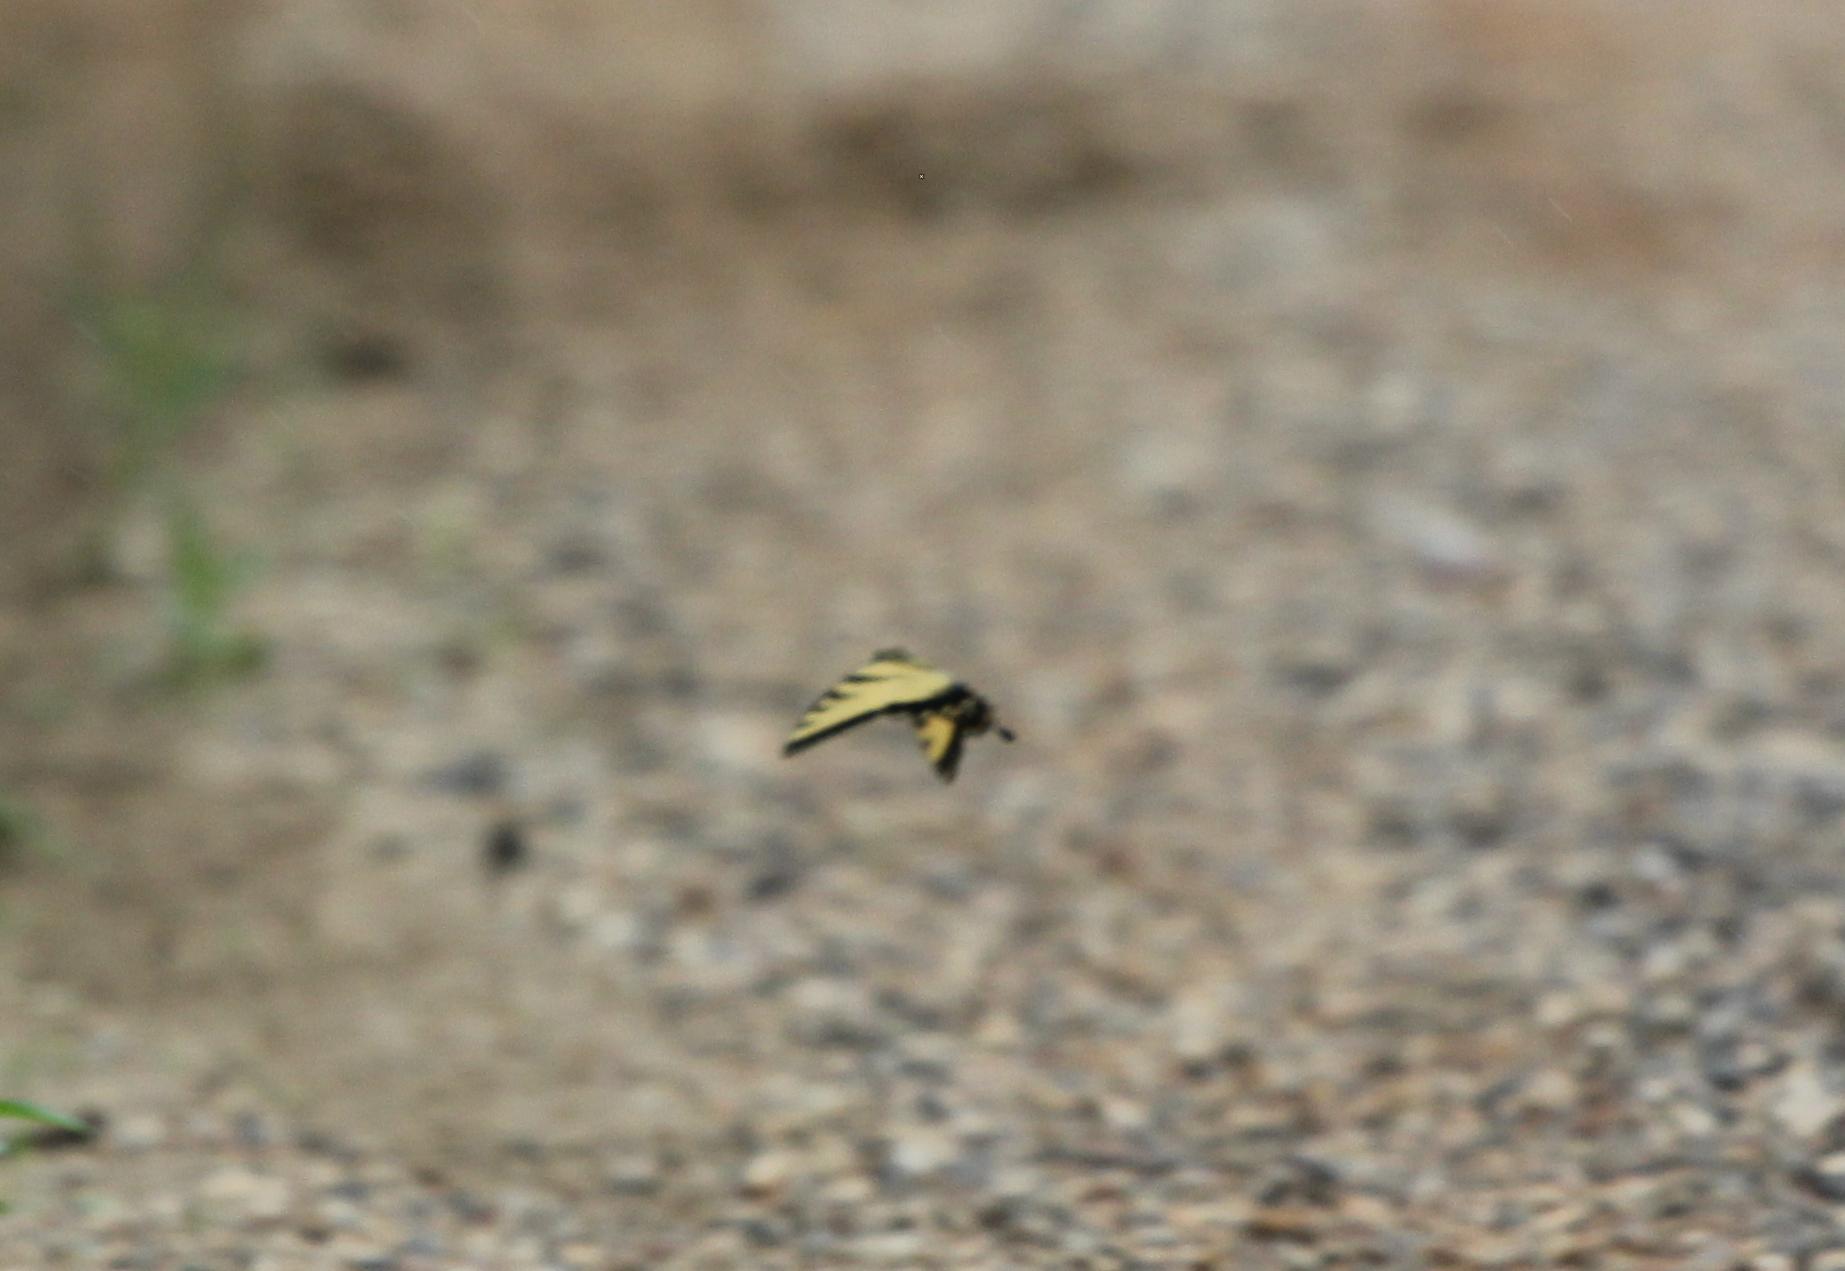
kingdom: Animalia
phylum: Arthropoda
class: Insecta
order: Lepidoptera
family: Papilionidae
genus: Papilio
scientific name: Papilio glaucus
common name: Tiger swallowtail
